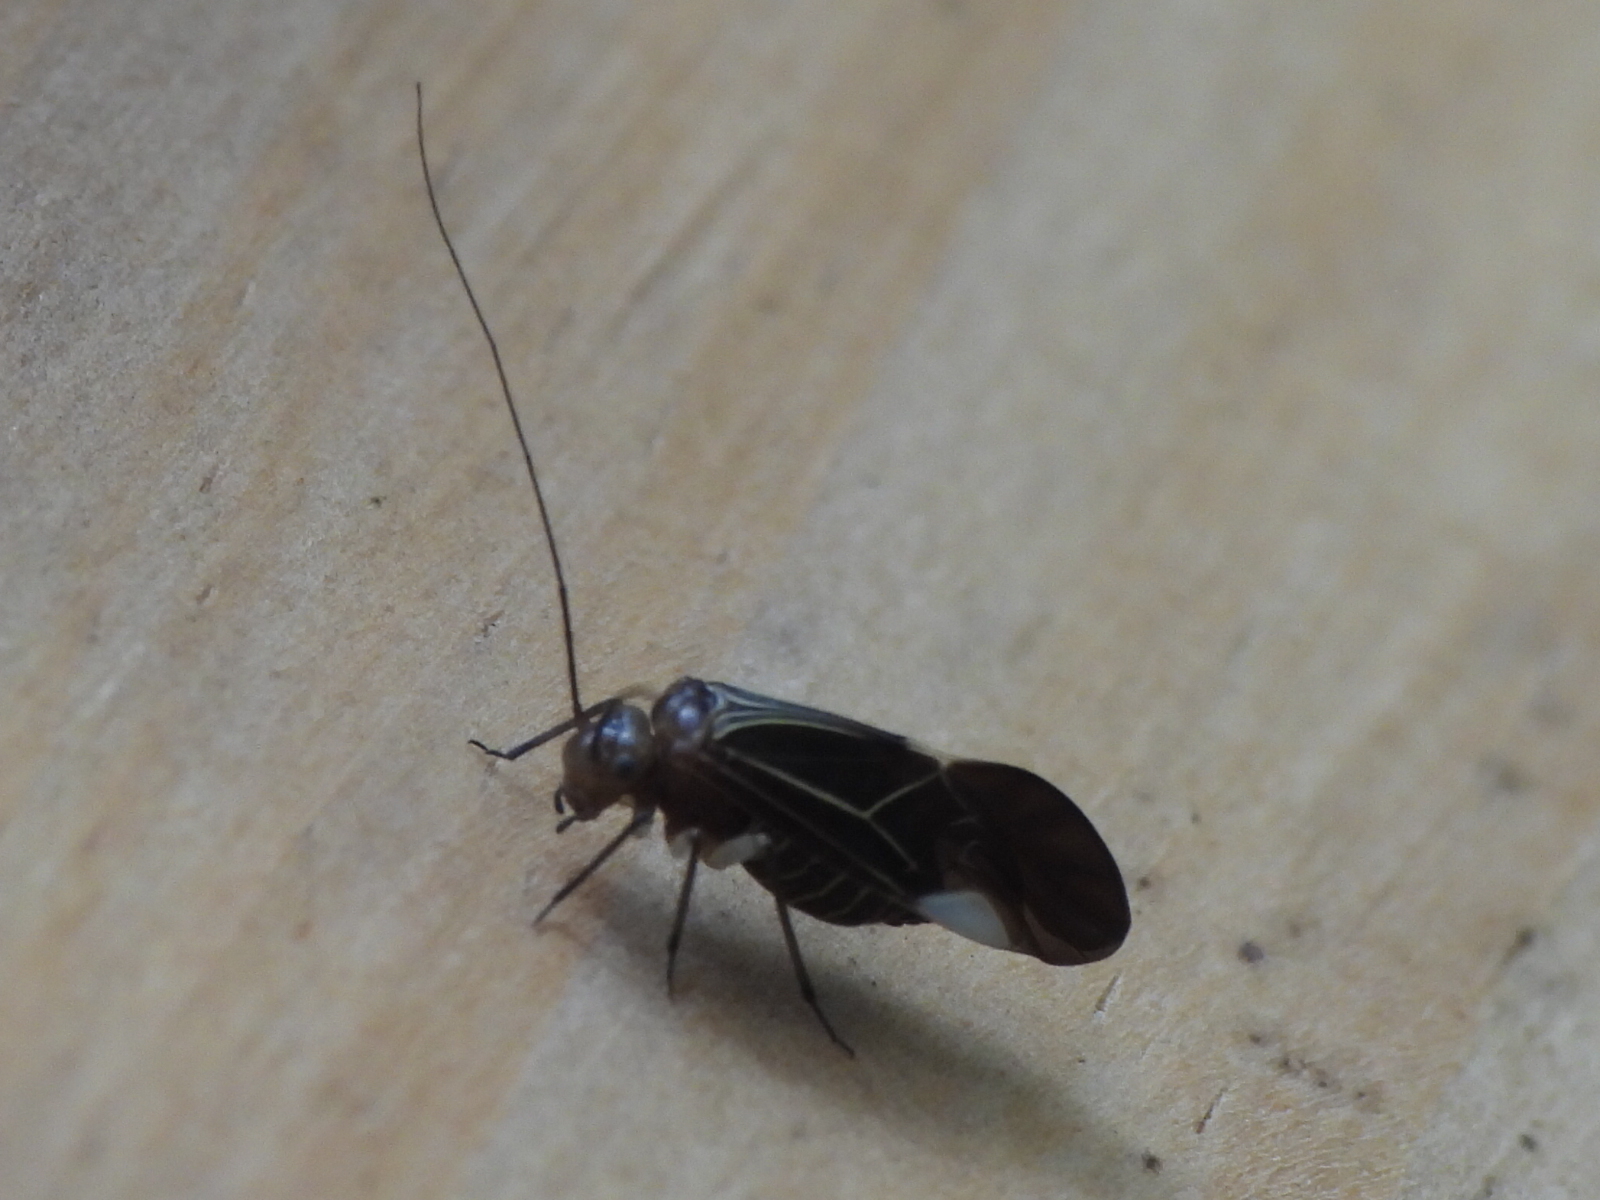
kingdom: Animalia
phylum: Arthropoda
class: Insecta
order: Psocodea
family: Psocidae
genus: Cerastipsocus
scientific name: Cerastipsocus venosus
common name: Tree cattle
